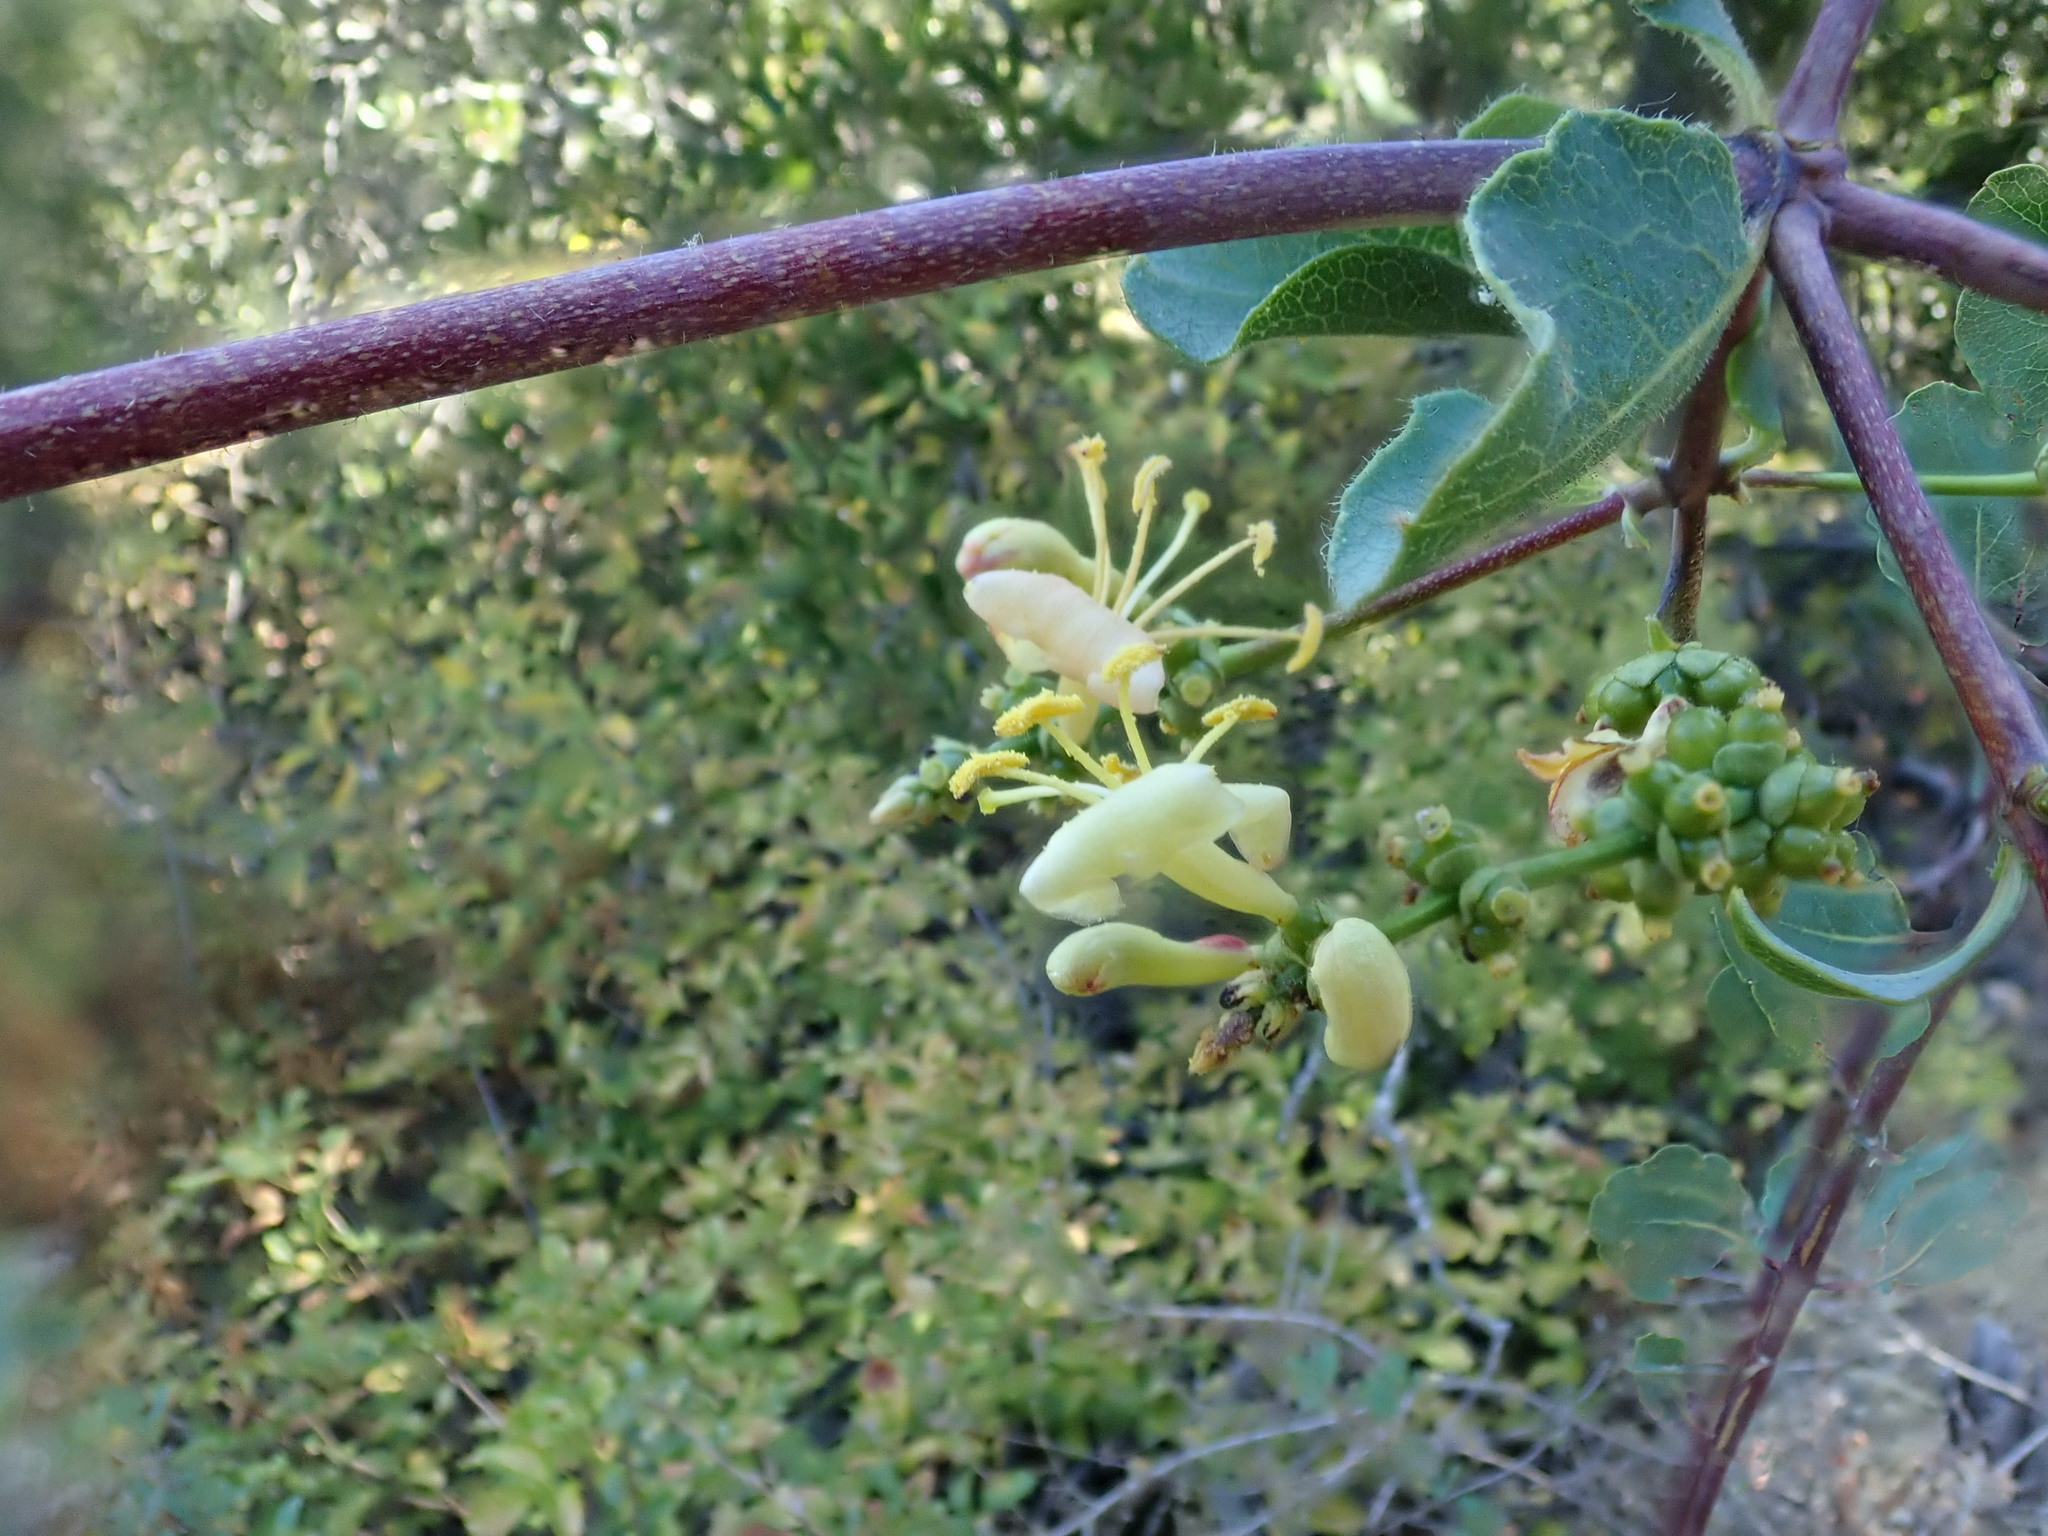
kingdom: Plantae
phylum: Tracheophyta
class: Magnoliopsida
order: Dipsacales
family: Caprifoliaceae
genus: Lonicera
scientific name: Lonicera subspicata
